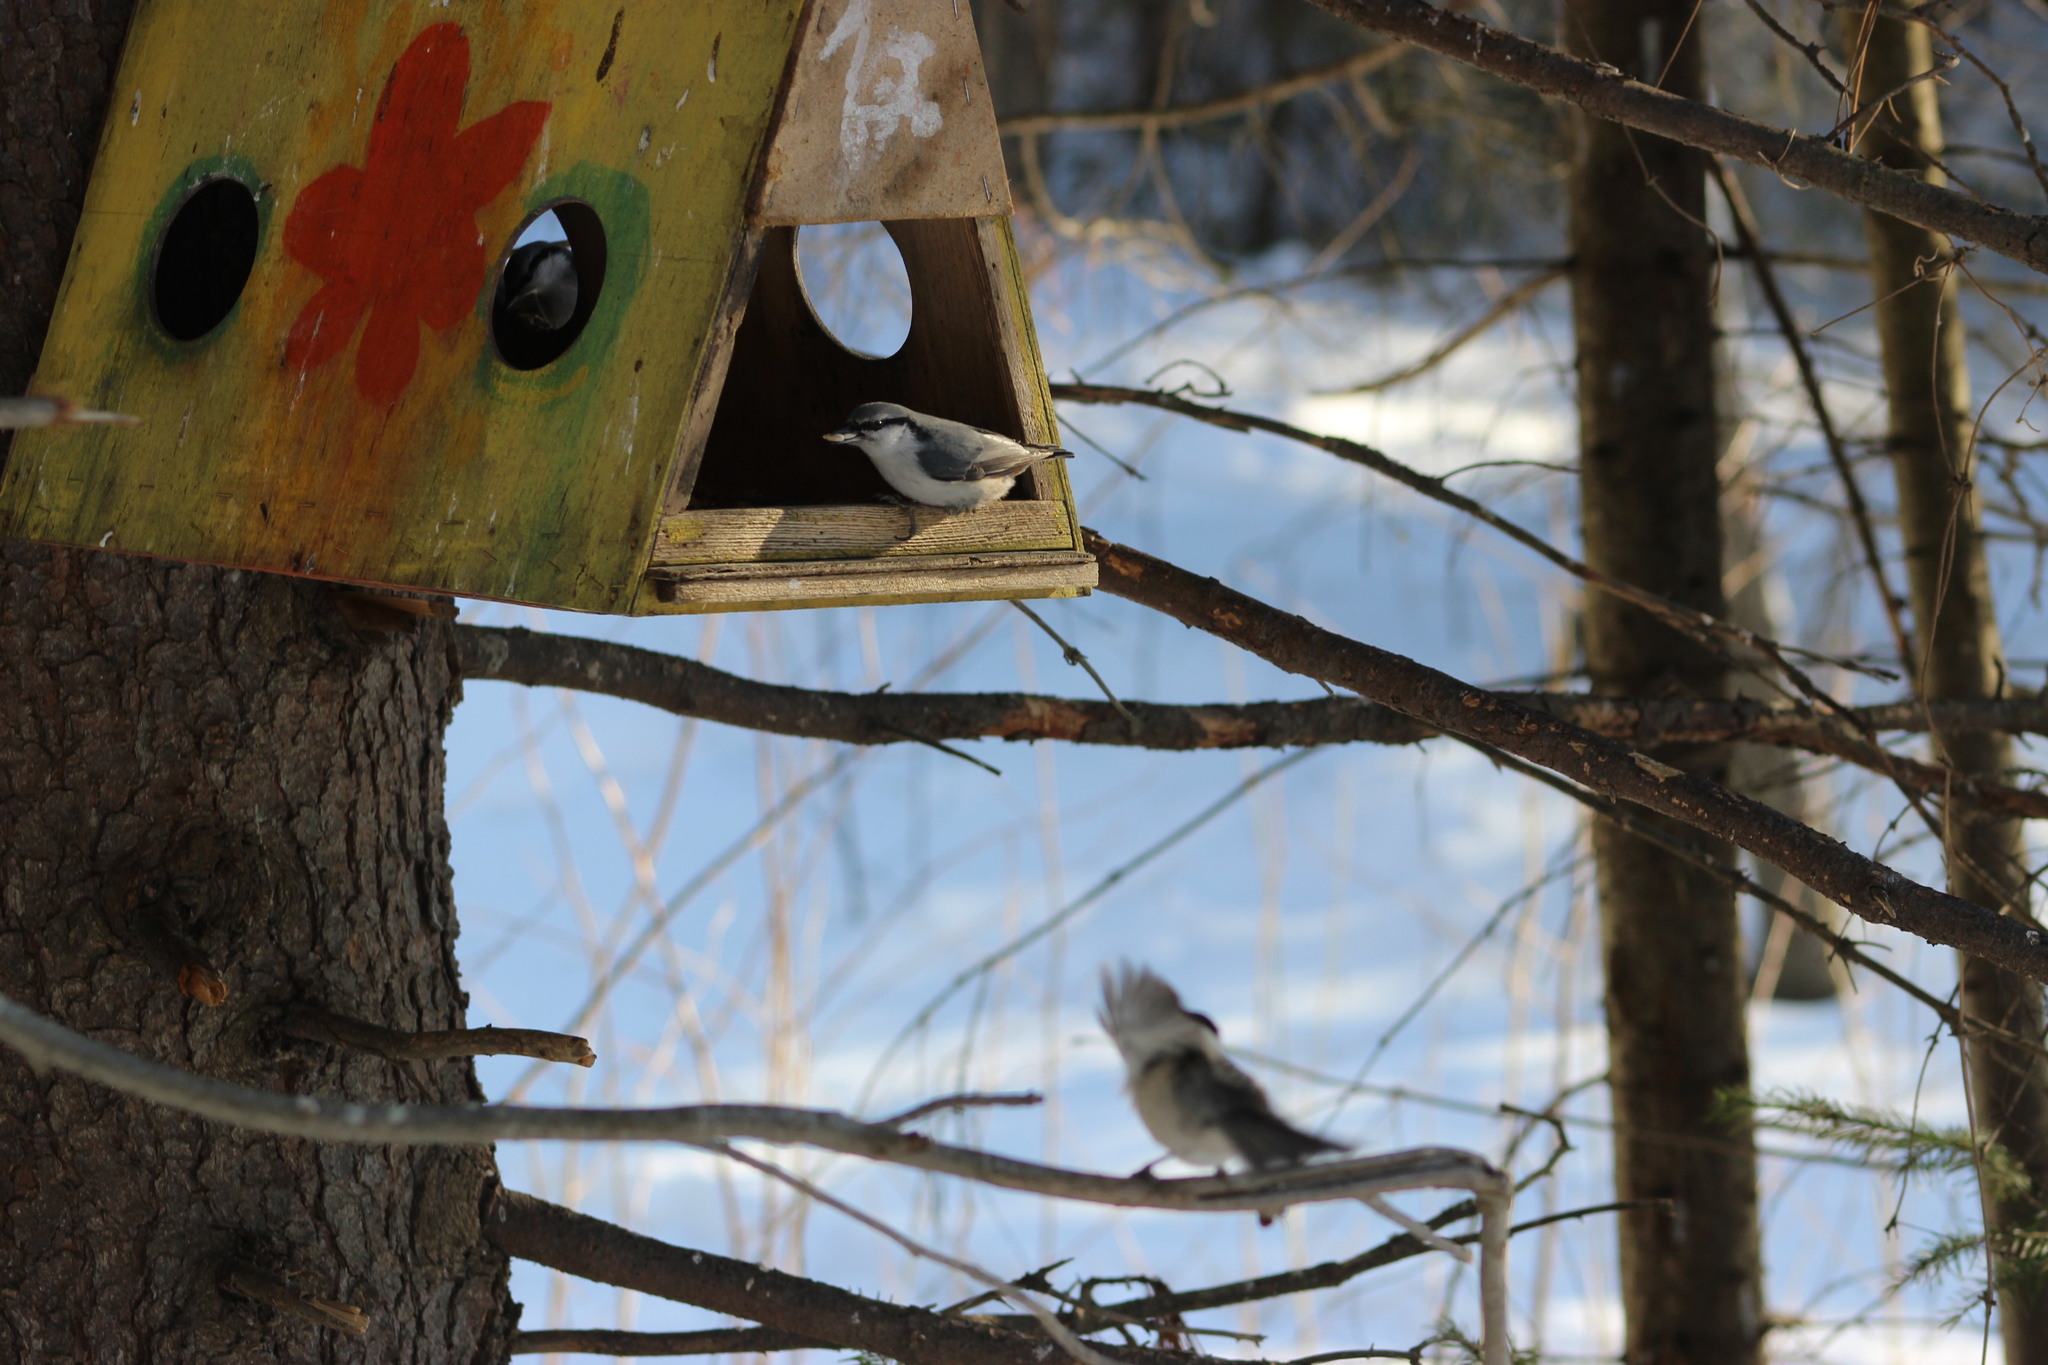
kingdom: Animalia
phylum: Chordata
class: Aves
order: Passeriformes
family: Sittidae
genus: Sitta
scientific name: Sitta europaea
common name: Eurasian nuthatch
